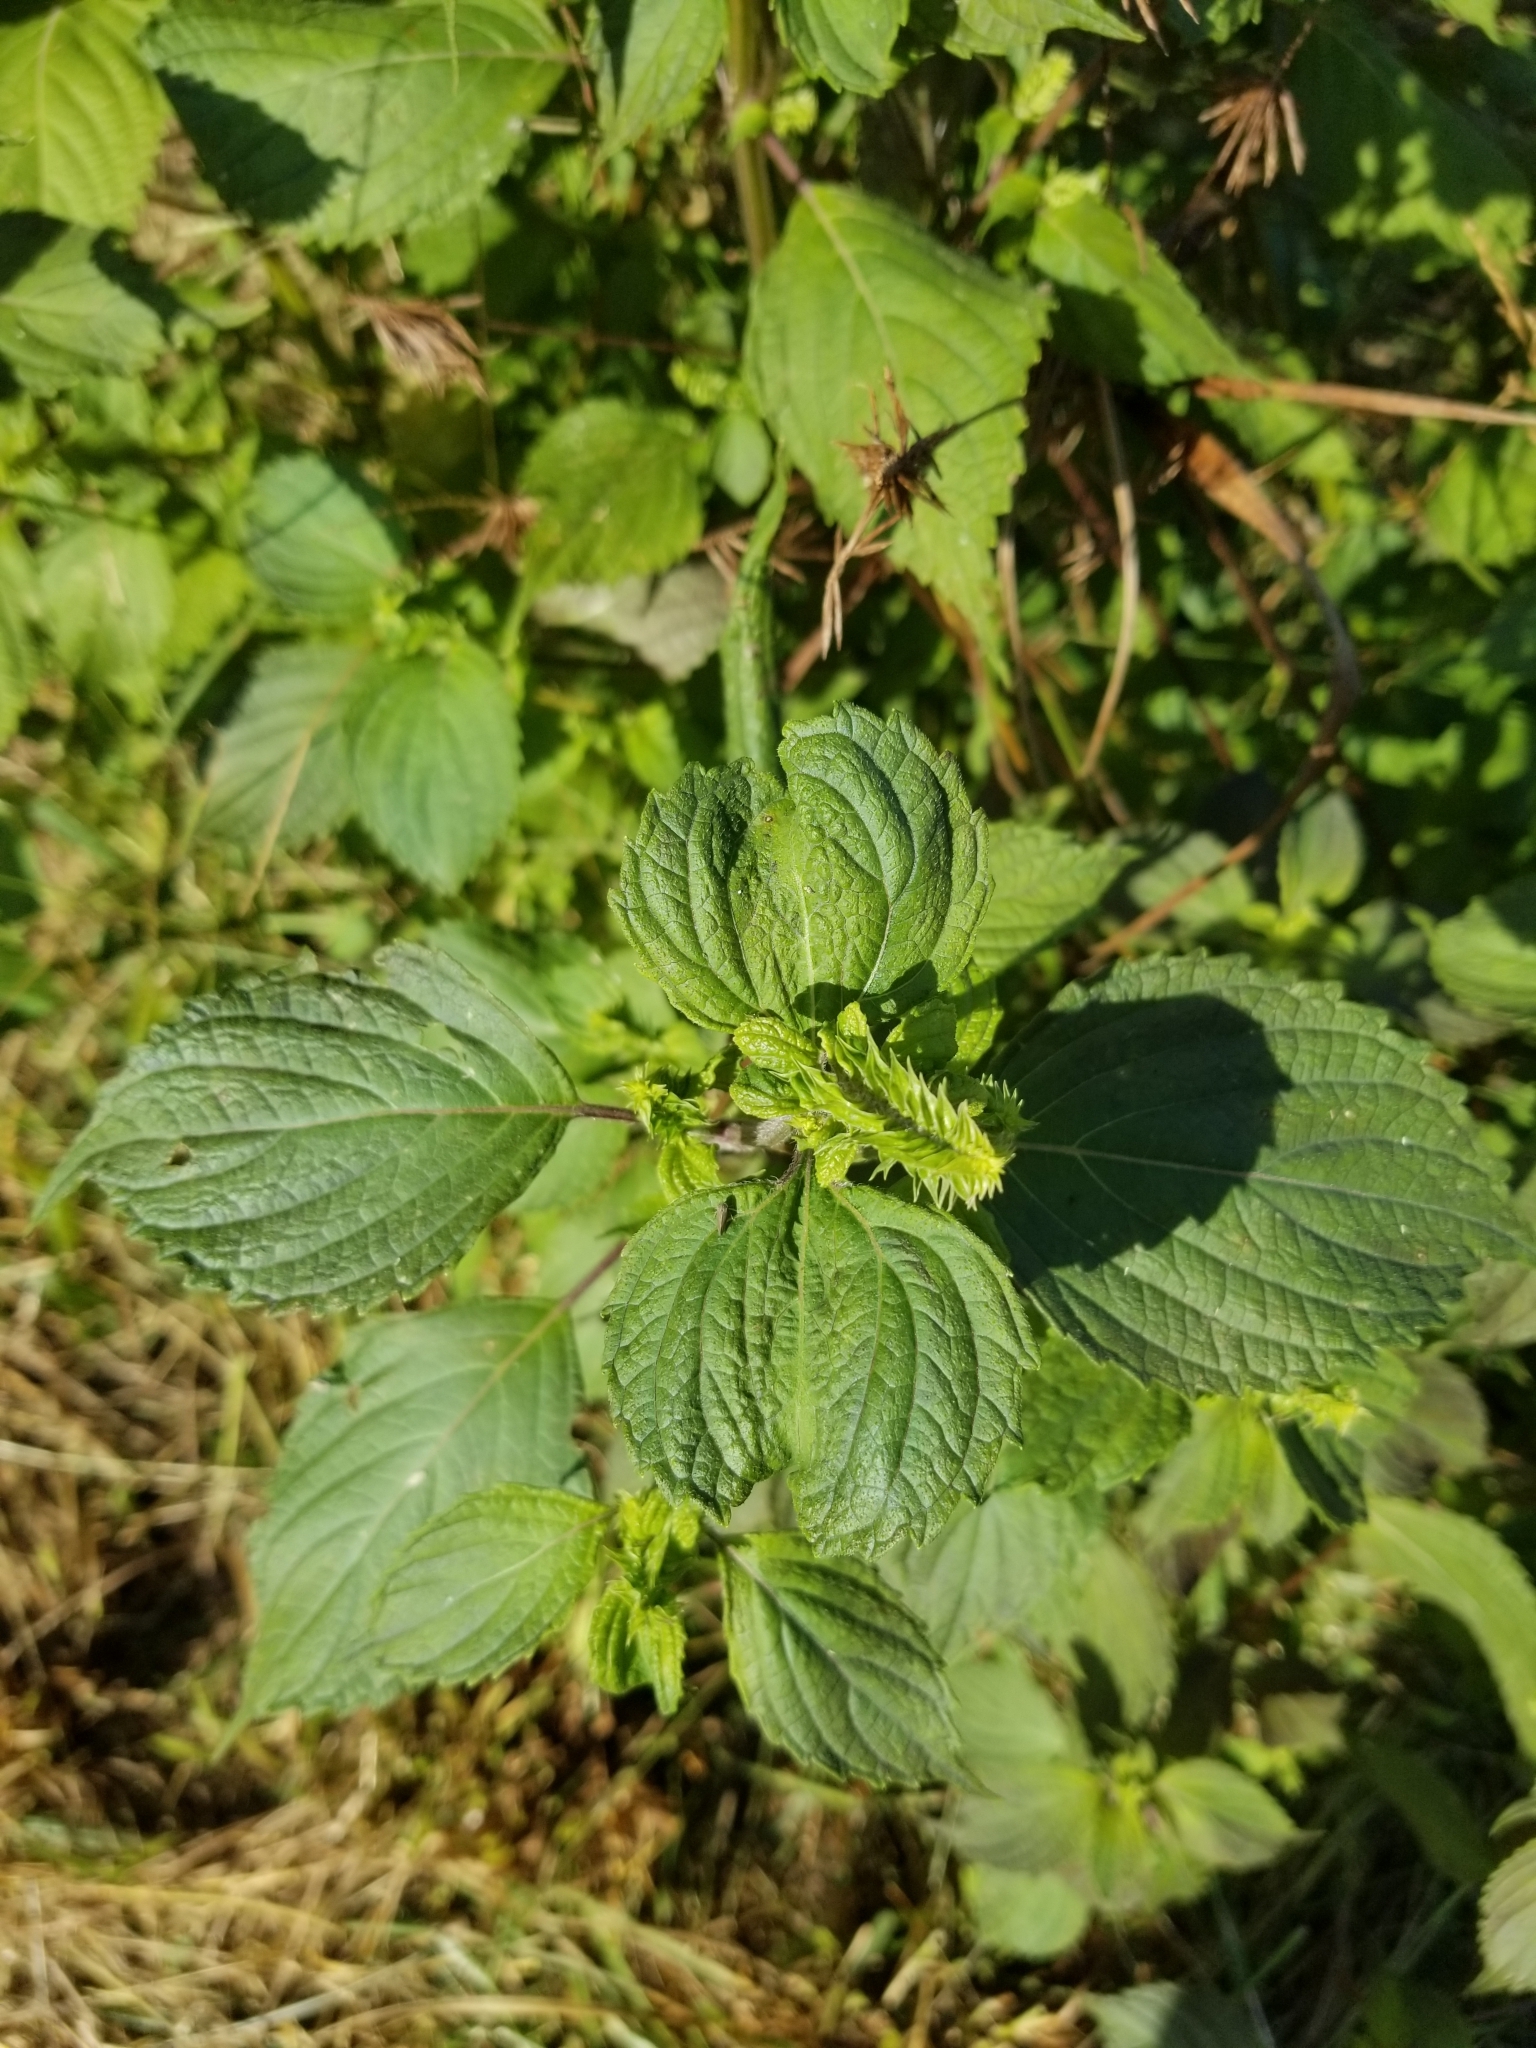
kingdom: Plantae
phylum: Tracheophyta
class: Magnoliopsida
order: Lamiales
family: Lamiaceae
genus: Perilla
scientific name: Perilla frutescens
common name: Perilla
